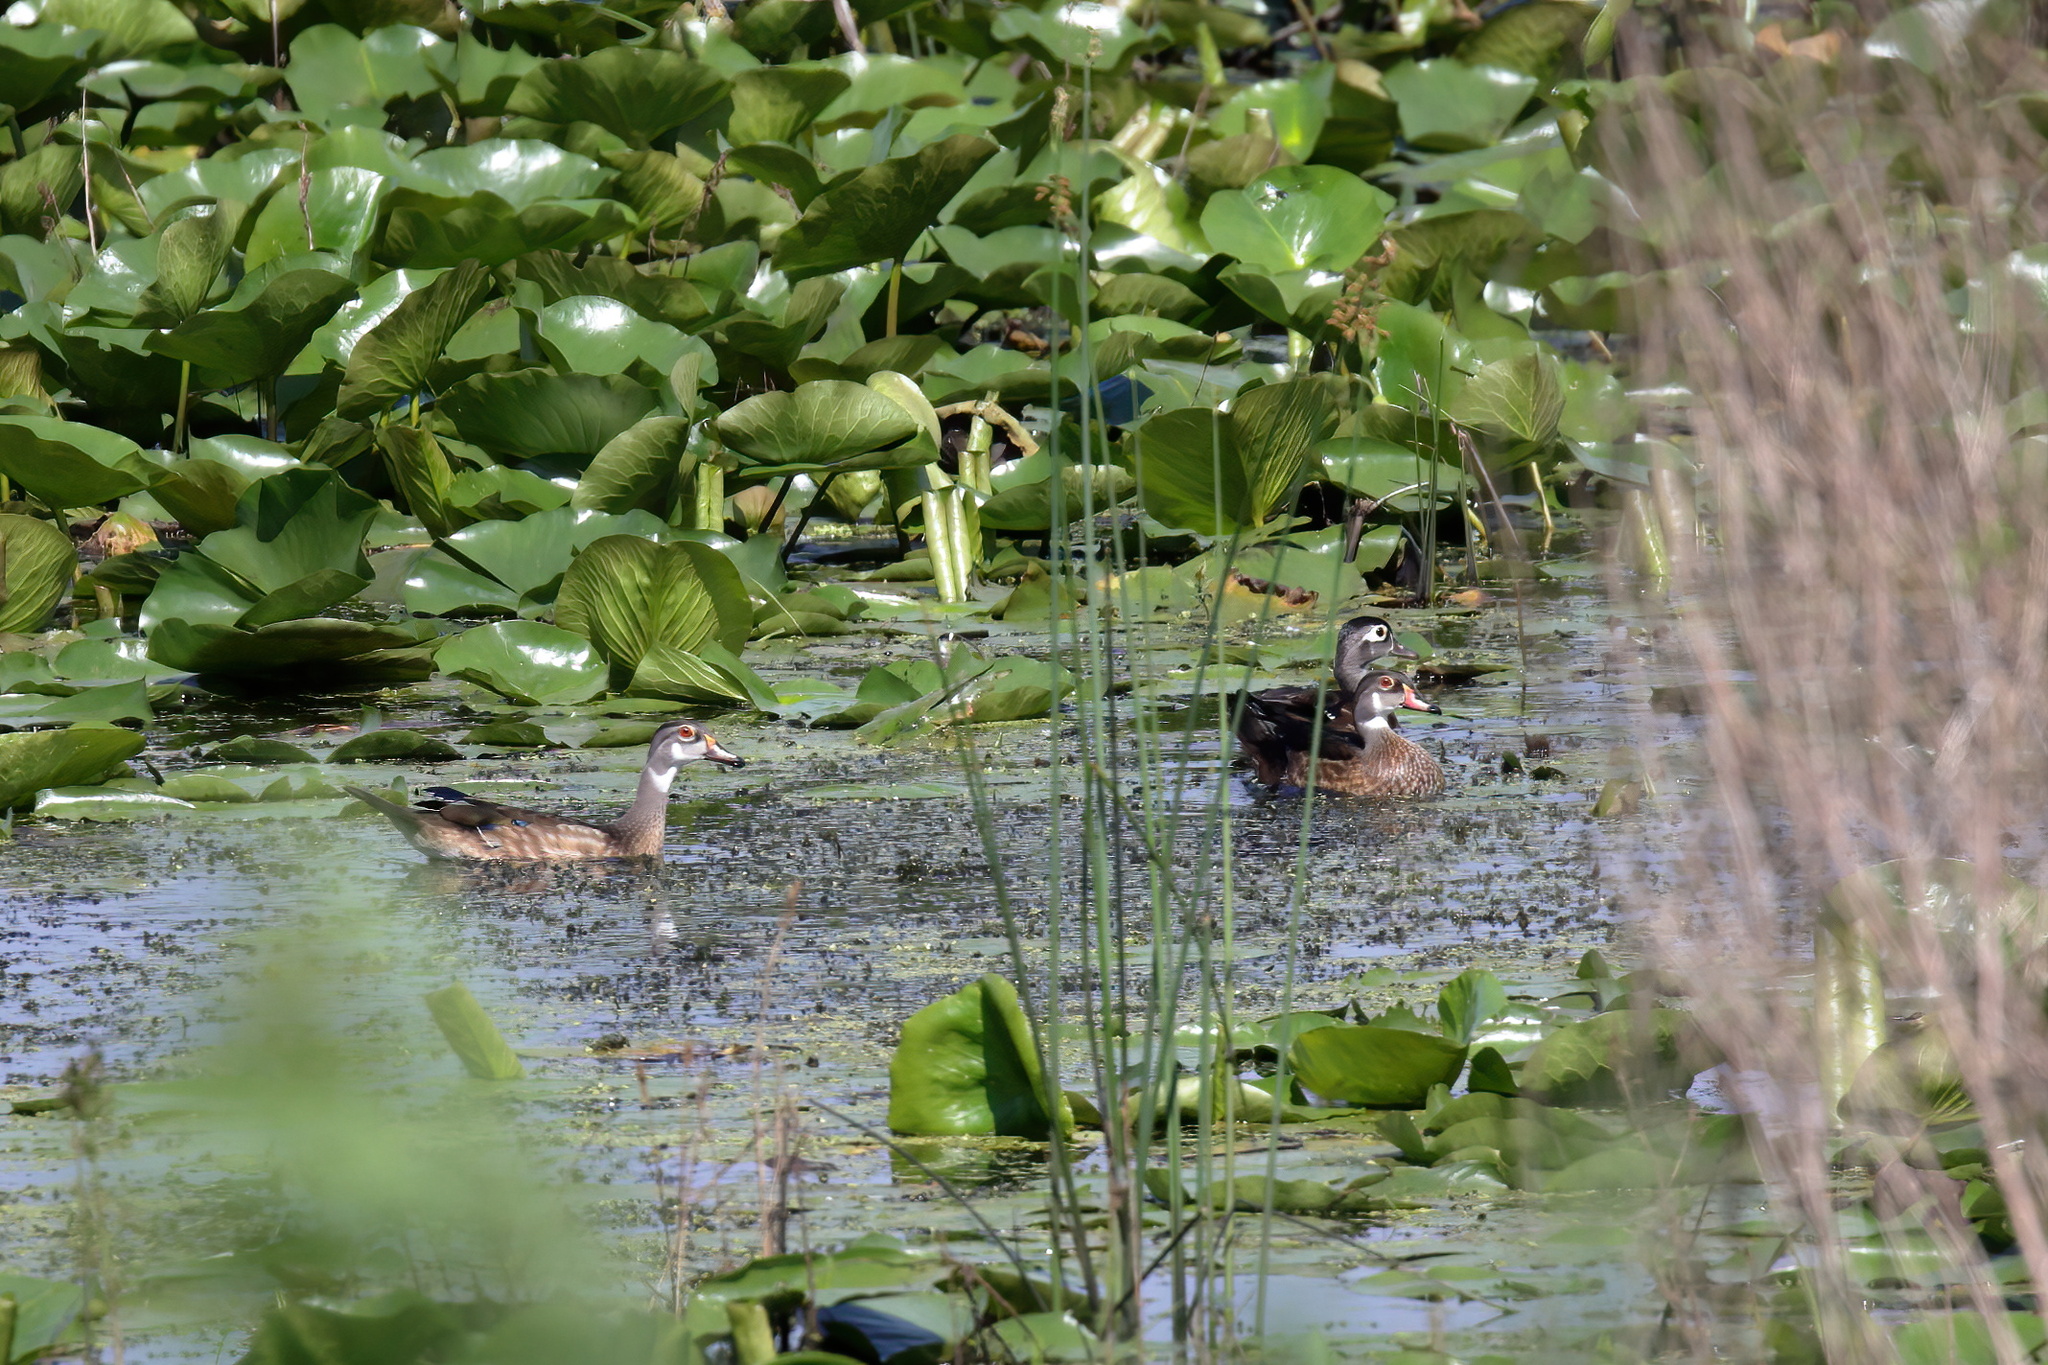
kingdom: Animalia
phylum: Chordata
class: Aves
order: Anseriformes
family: Anatidae
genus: Aix
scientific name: Aix sponsa
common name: Wood duck
